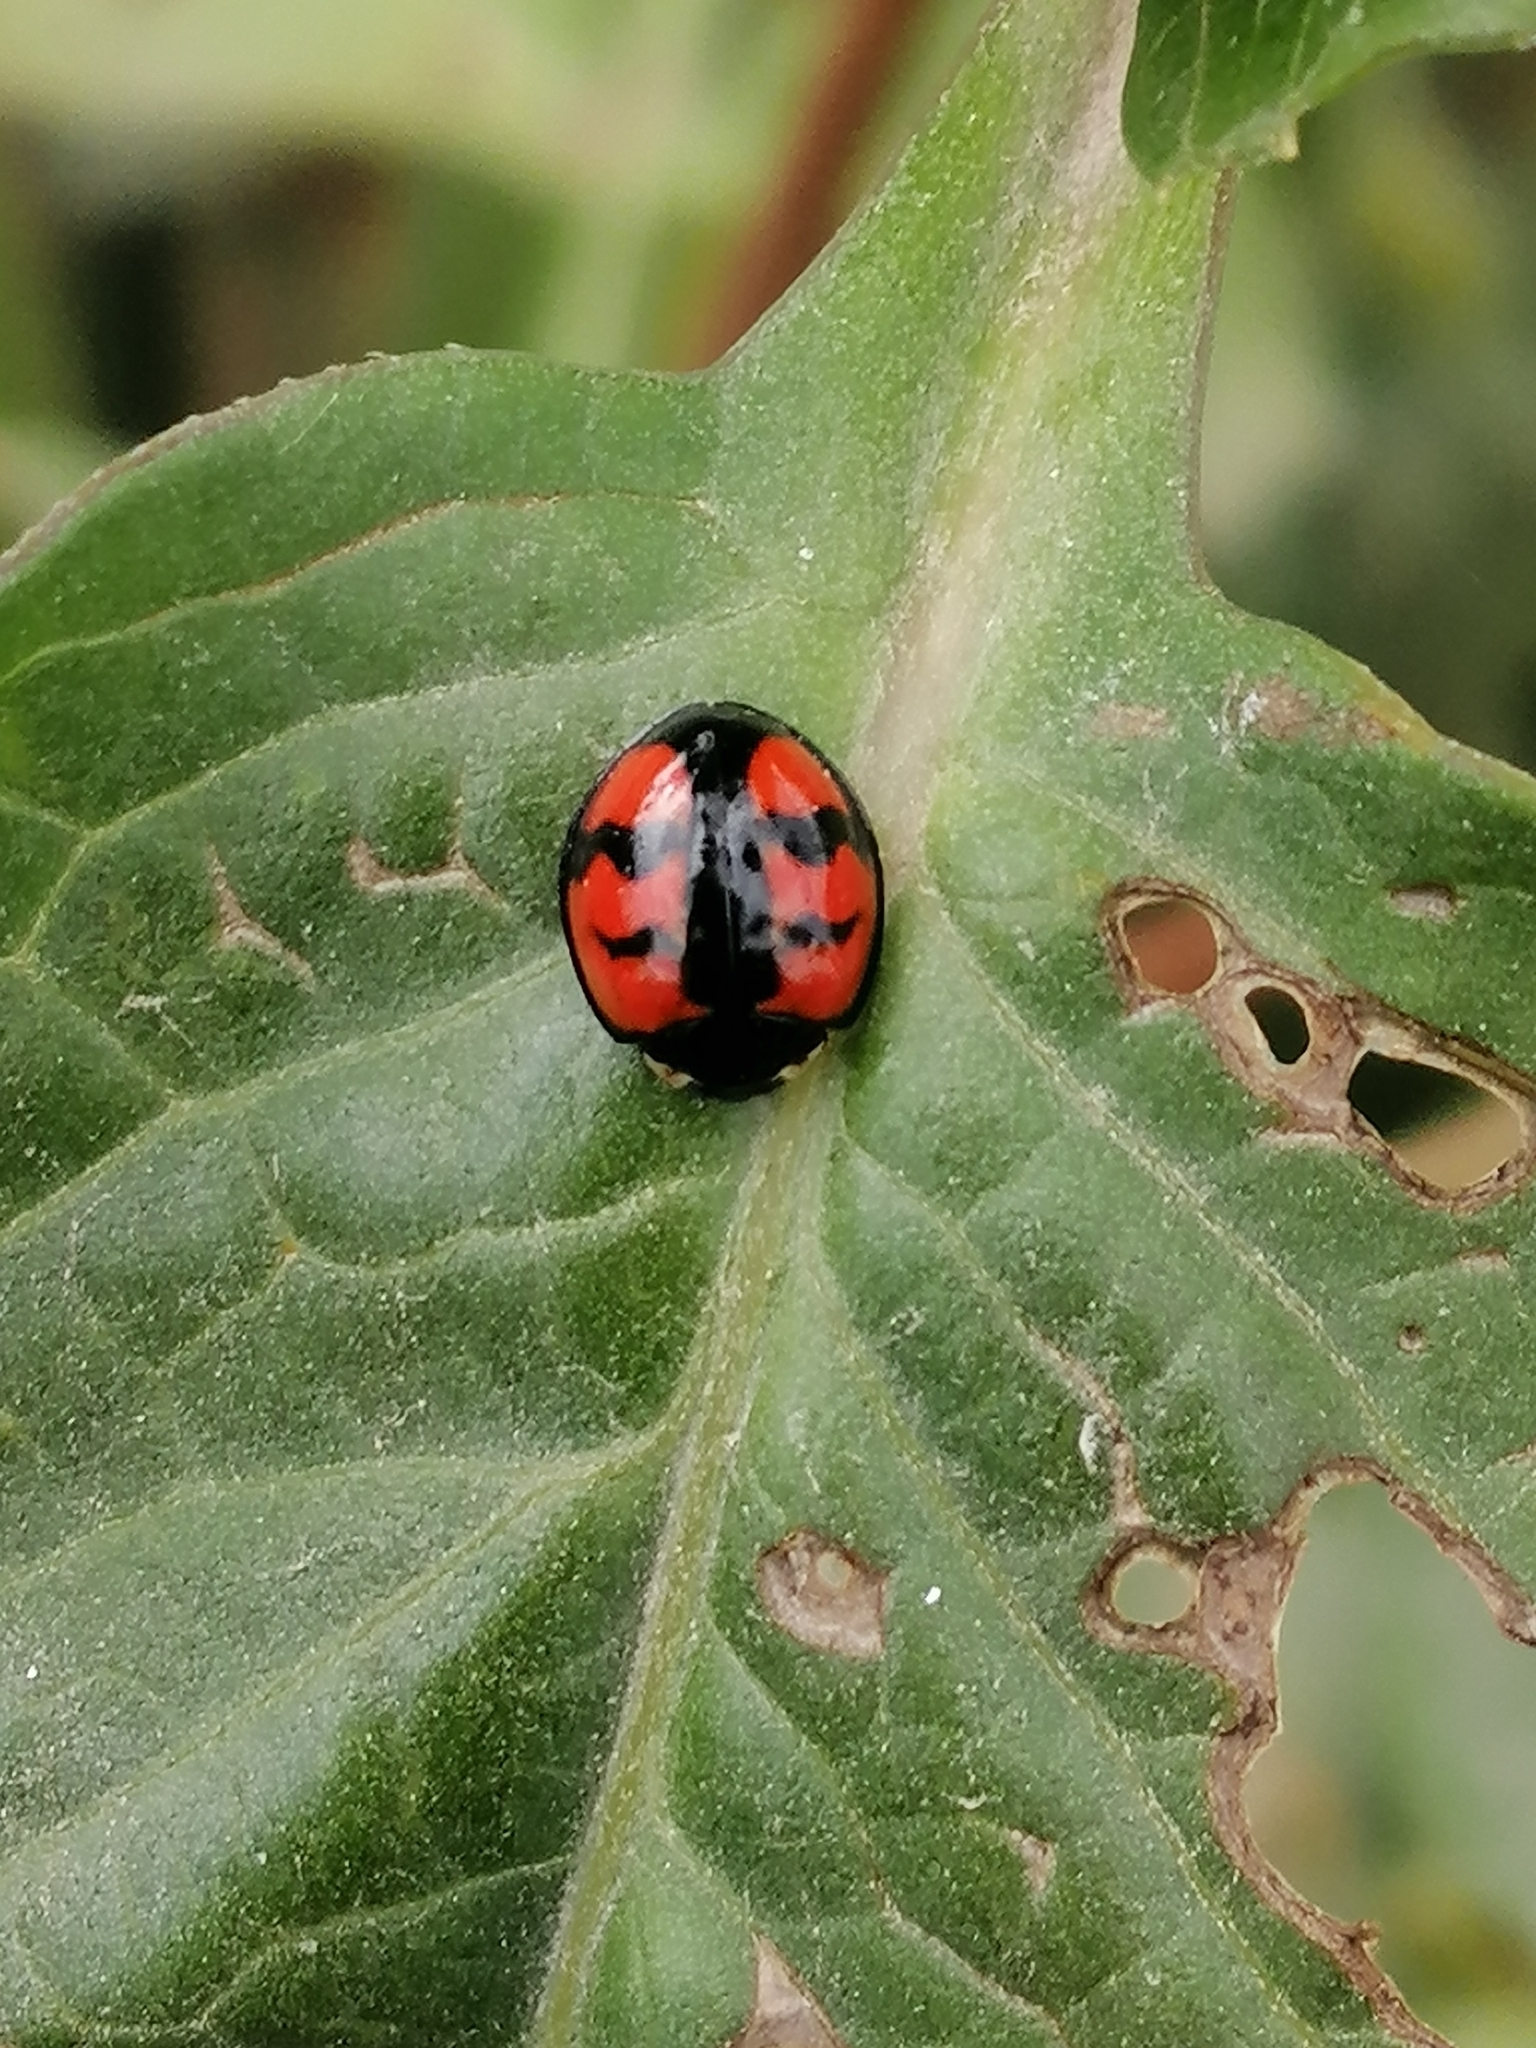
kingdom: Animalia
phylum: Arthropoda
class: Insecta
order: Coleoptera
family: Coccinellidae
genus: Cheilomenes
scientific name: Cheilomenes sexmaculata
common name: Ladybird beetle
